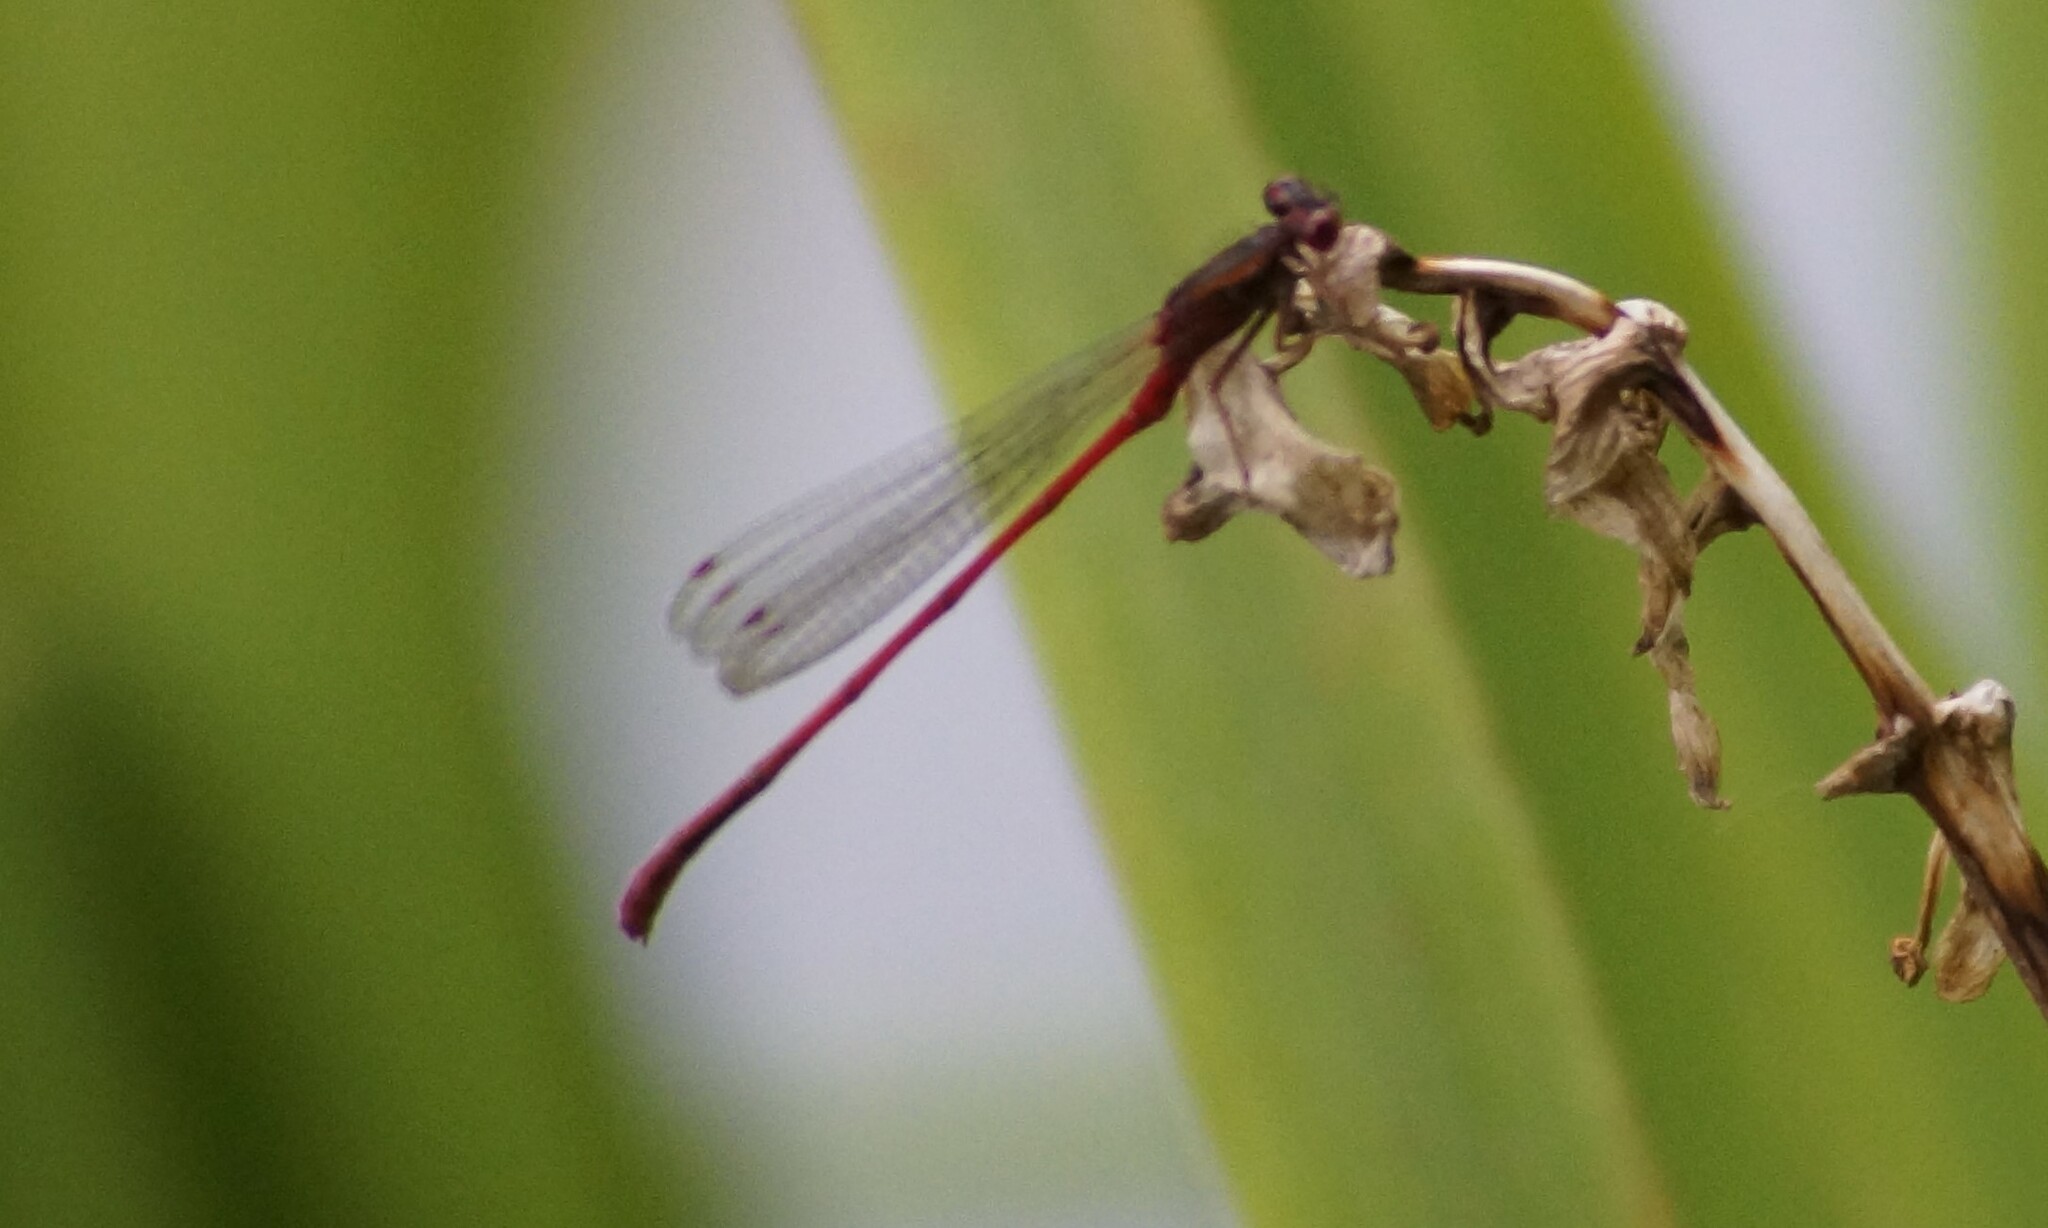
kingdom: Animalia
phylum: Arthropoda
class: Insecta
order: Odonata
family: Coenagrionidae
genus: Xanthocnemis
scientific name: Xanthocnemis zealandica
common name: Common redcoat damselfly
